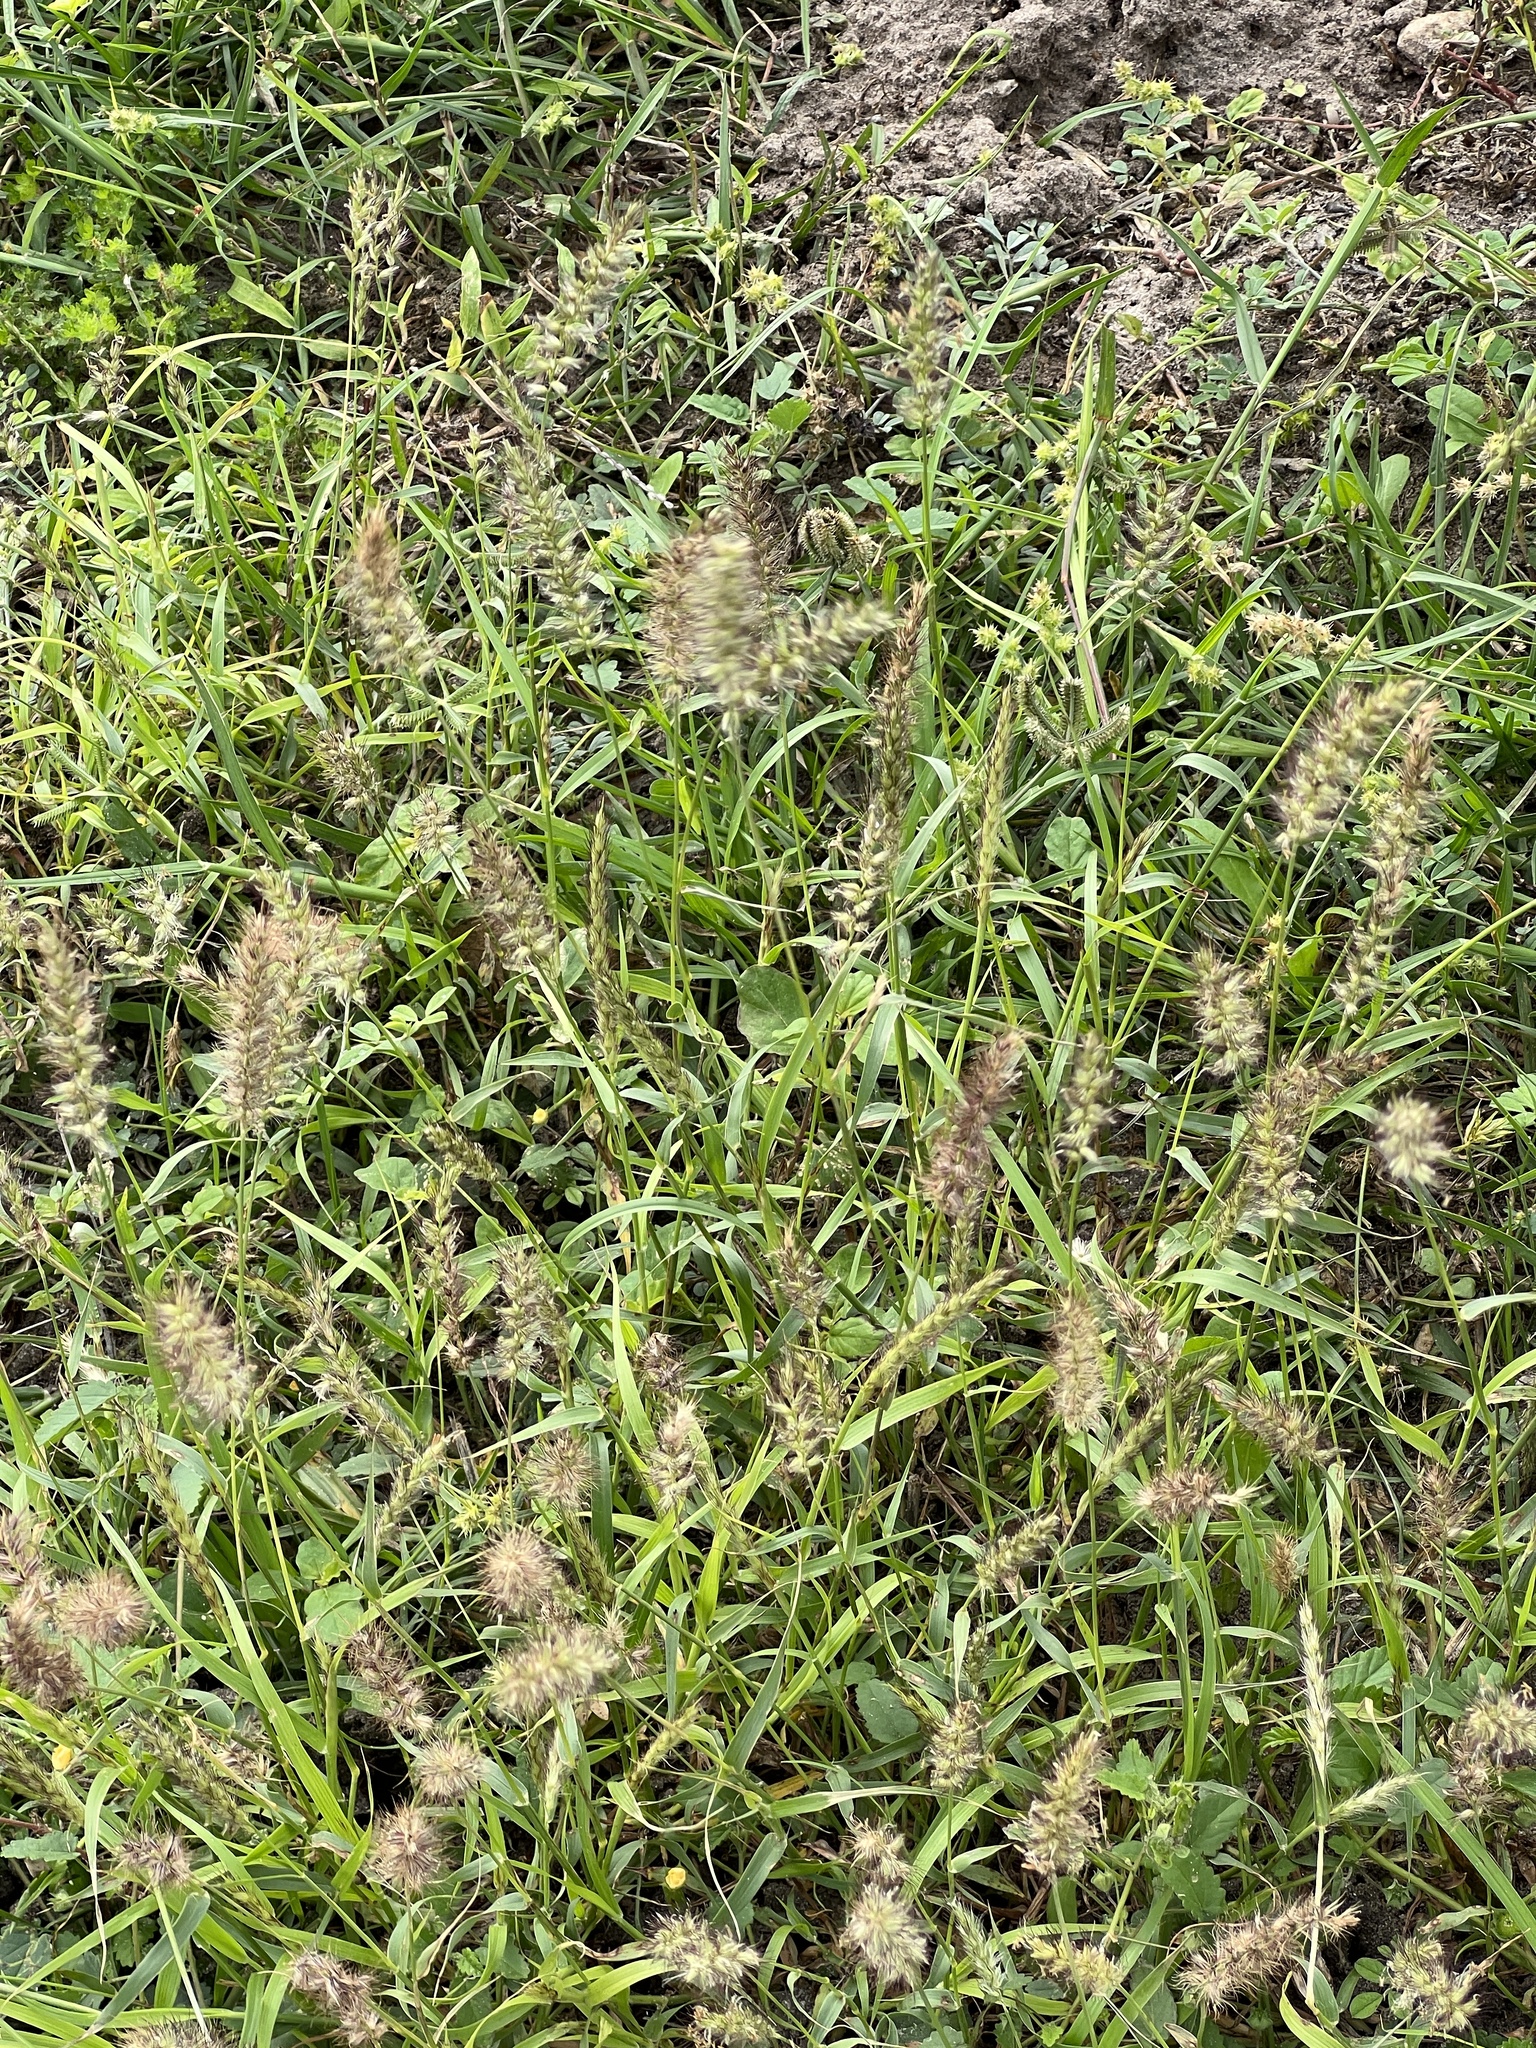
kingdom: Plantae
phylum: Tracheophyta
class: Liliopsida
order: Poales
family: Poaceae
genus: Cenchrus
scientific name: Cenchrus ciliaris
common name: Buffelgrass
